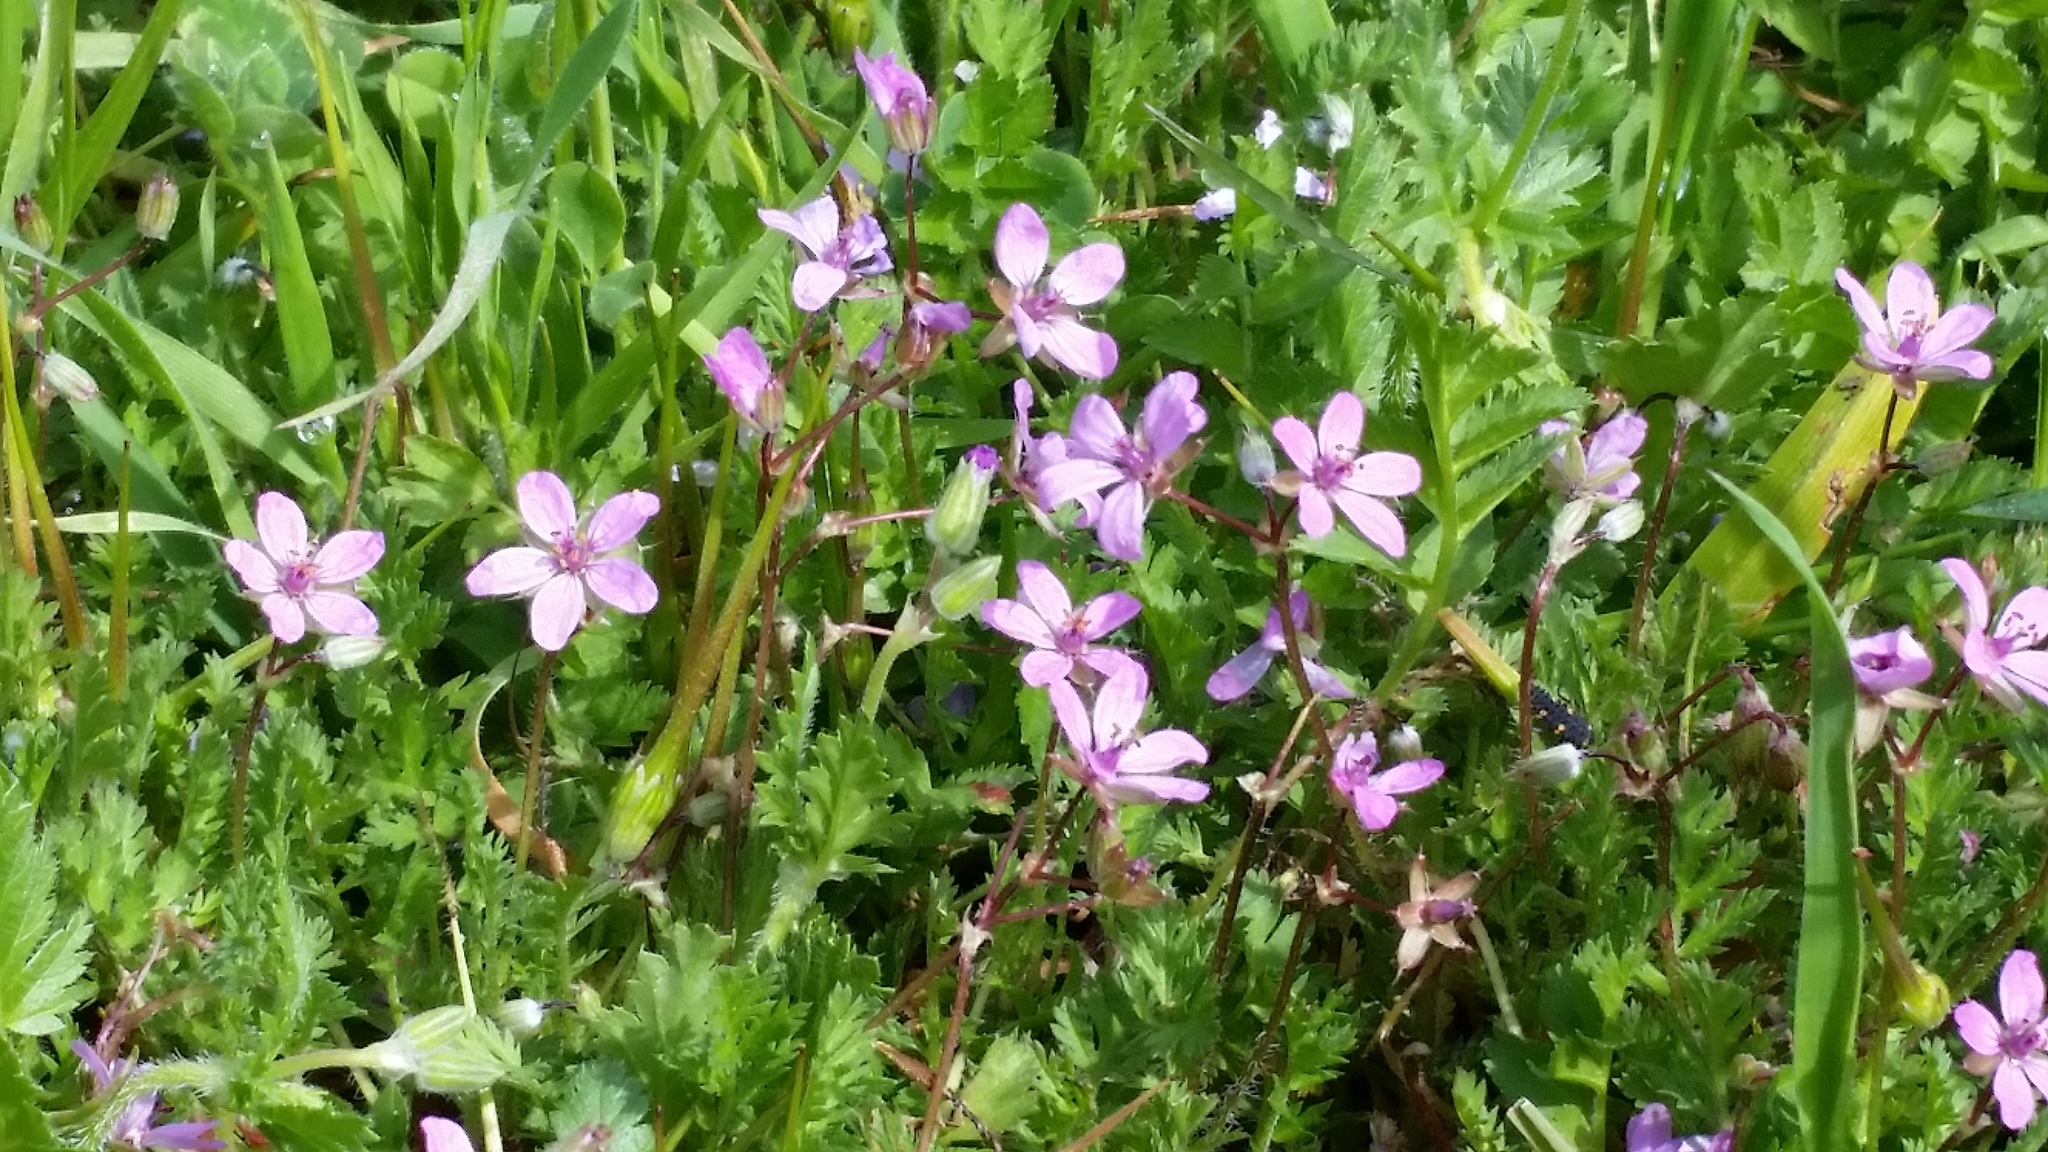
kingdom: Plantae
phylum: Tracheophyta
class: Magnoliopsida
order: Geraniales
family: Geraniaceae
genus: Erodium
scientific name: Erodium cicutarium
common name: Common stork's-bill
